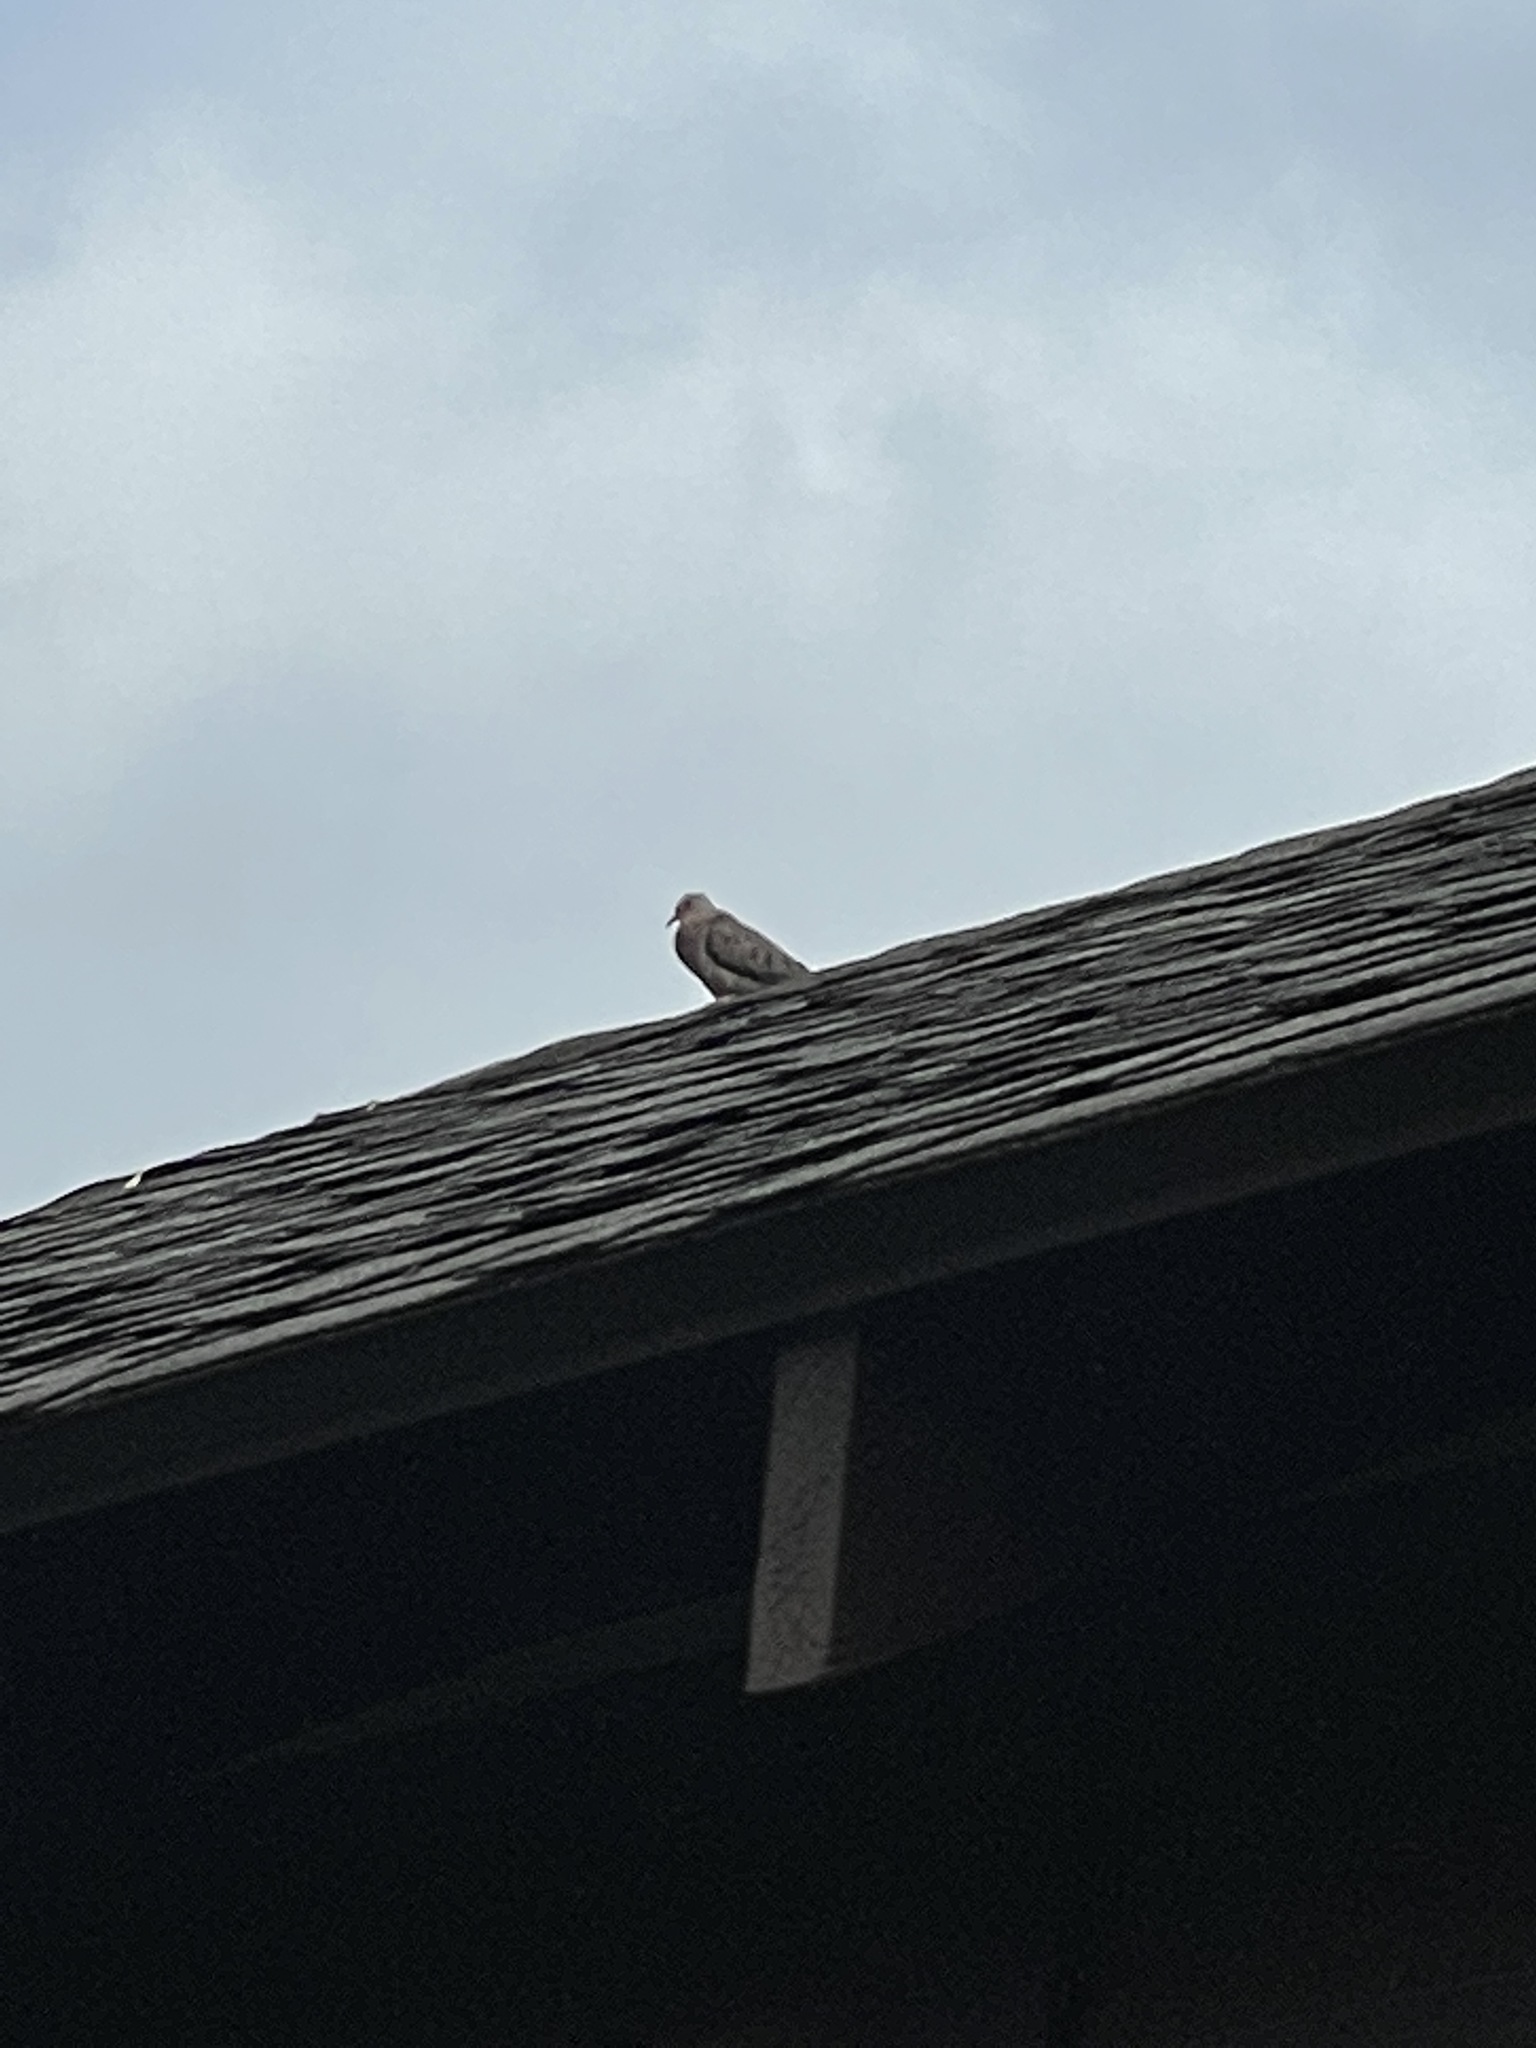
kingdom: Animalia
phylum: Chordata
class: Aves
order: Columbiformes
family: Columbidae
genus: Columbina
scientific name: Columbina passerina
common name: Common ground-dove
